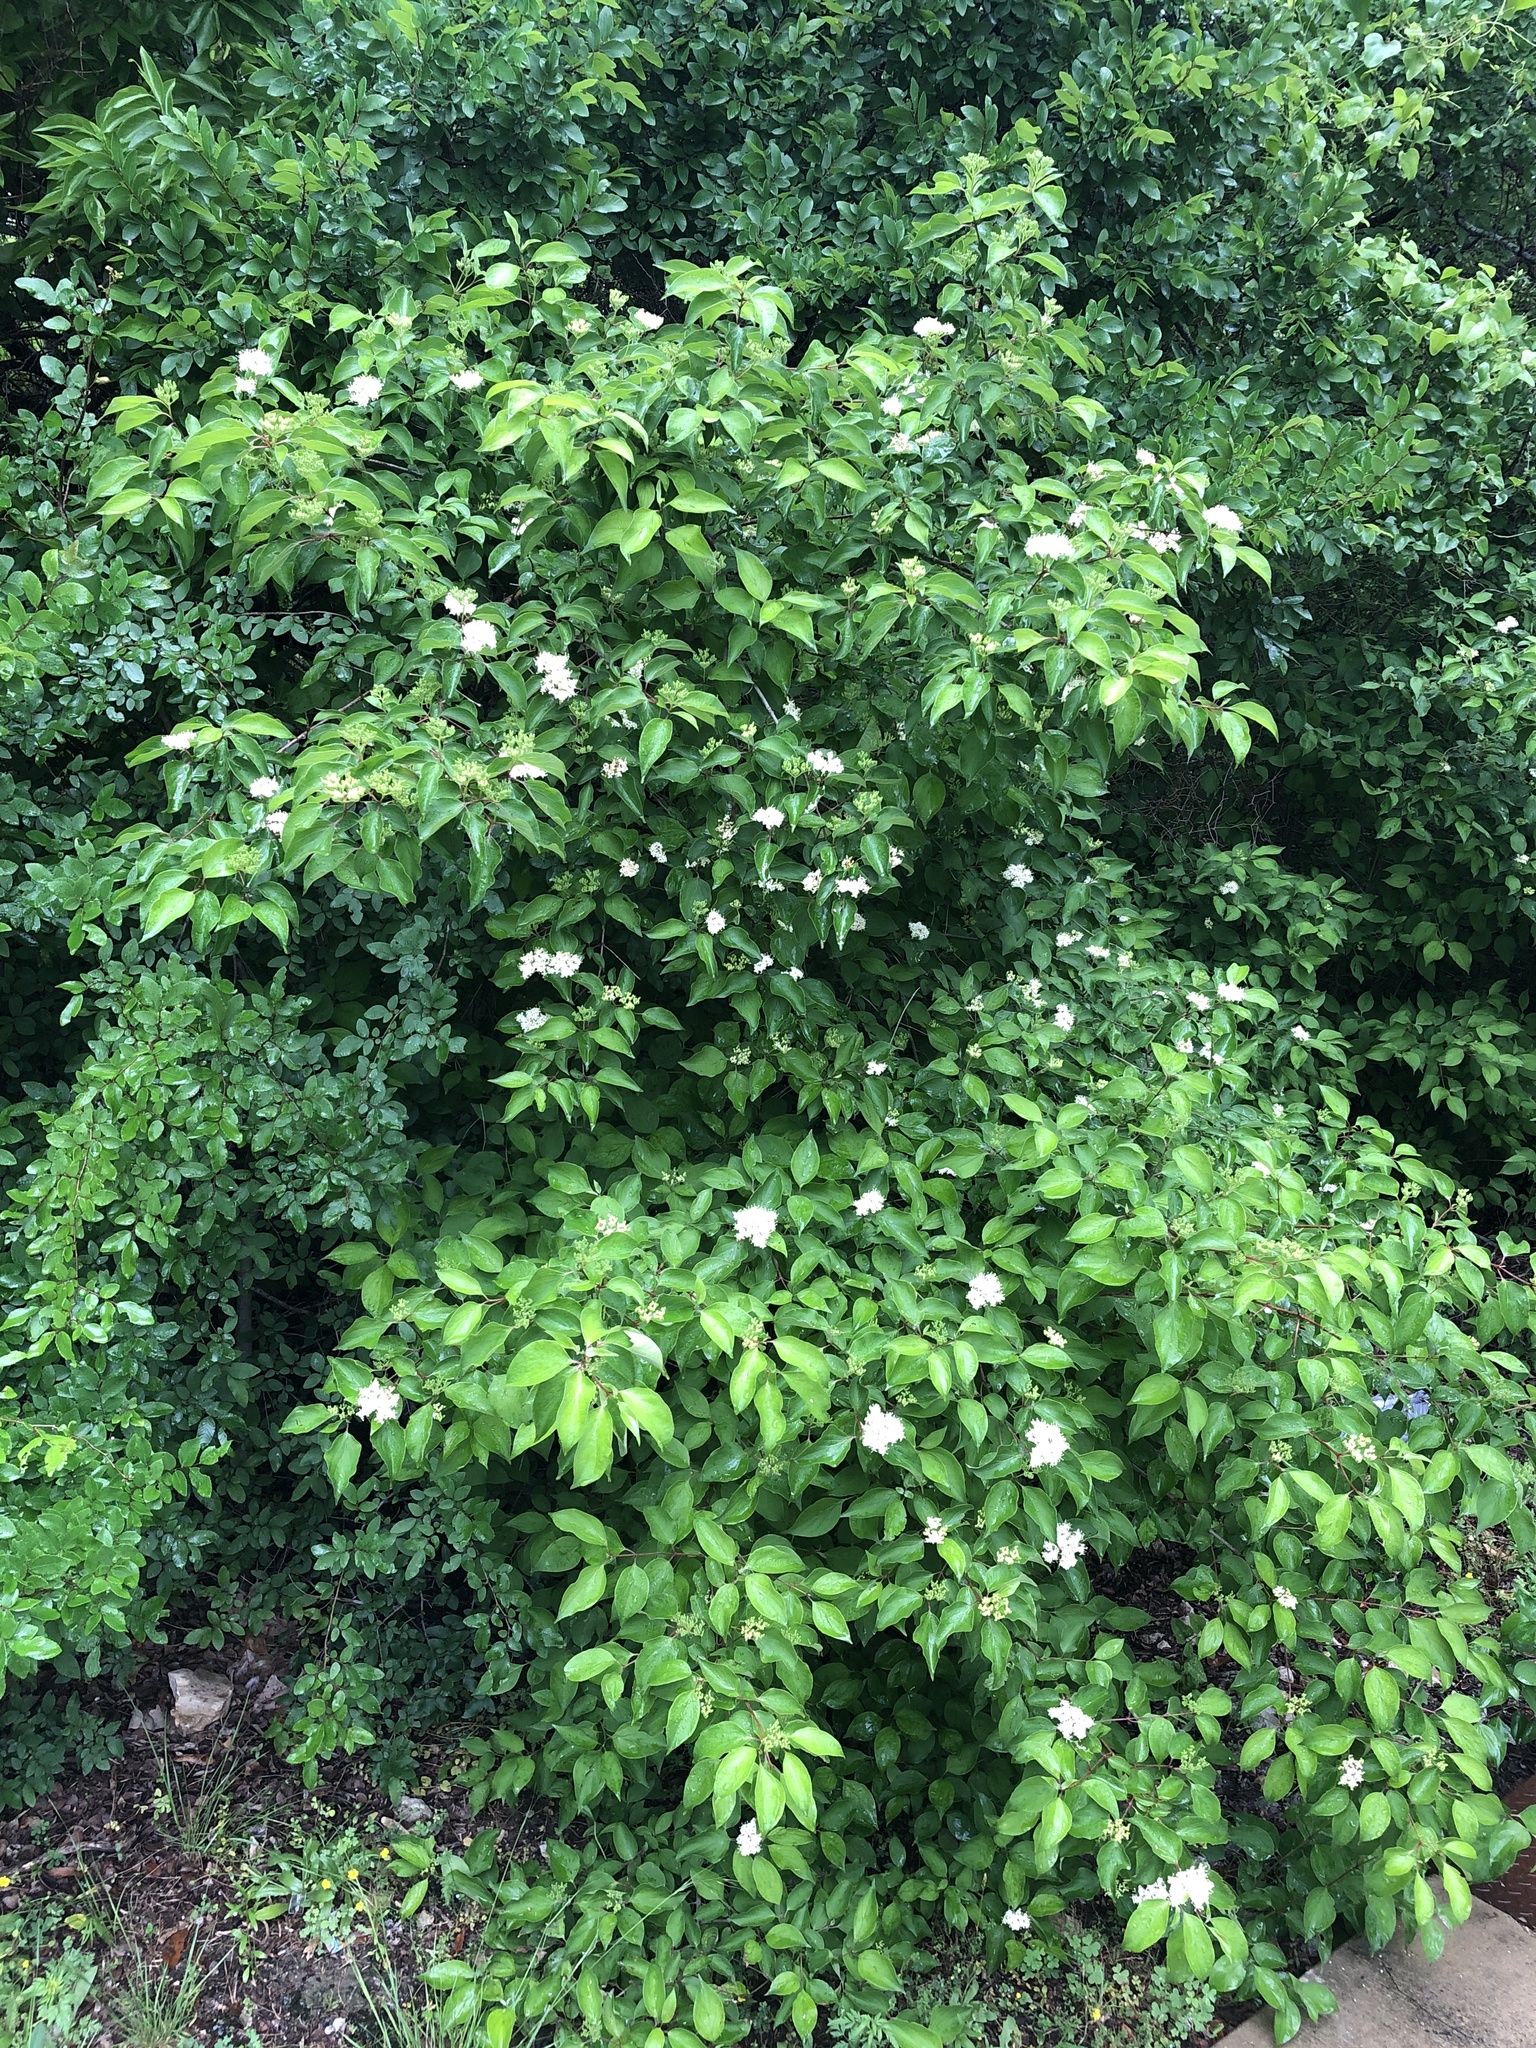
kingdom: Plantae
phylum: Tracheophyta
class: Magnoliopsida
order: Cornales
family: Cornaceae
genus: Cornus
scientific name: Cornus drummondii
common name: Rough-leaf dogwood
